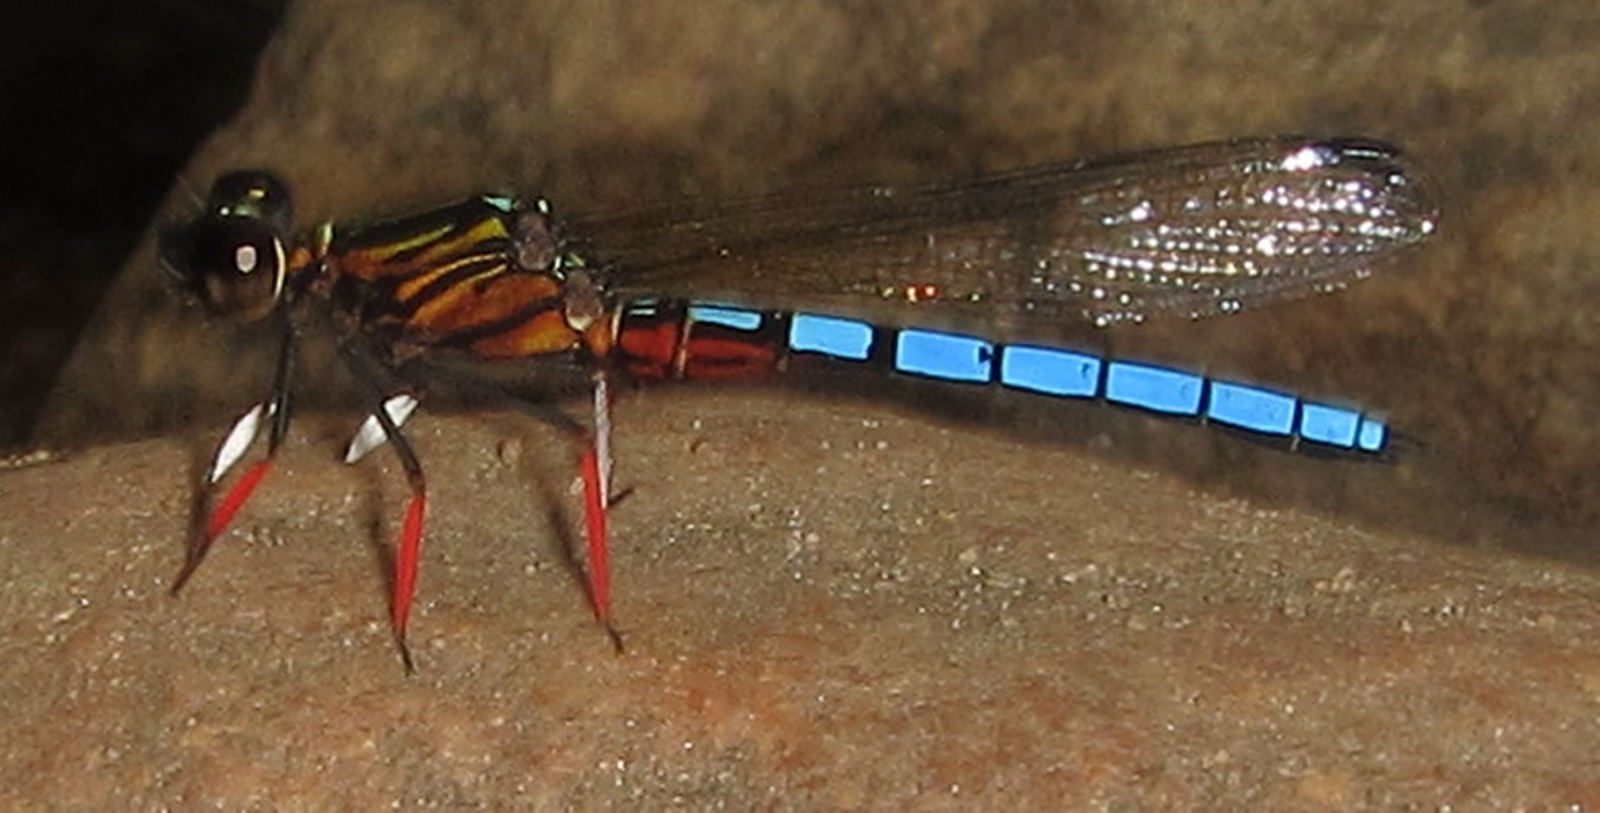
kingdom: Animalia
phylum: Arthropoda
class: Insecta
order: Odonata
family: Chlorocyphidae
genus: Platycypha
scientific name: Platycypha caligata
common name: Dancing jewel
